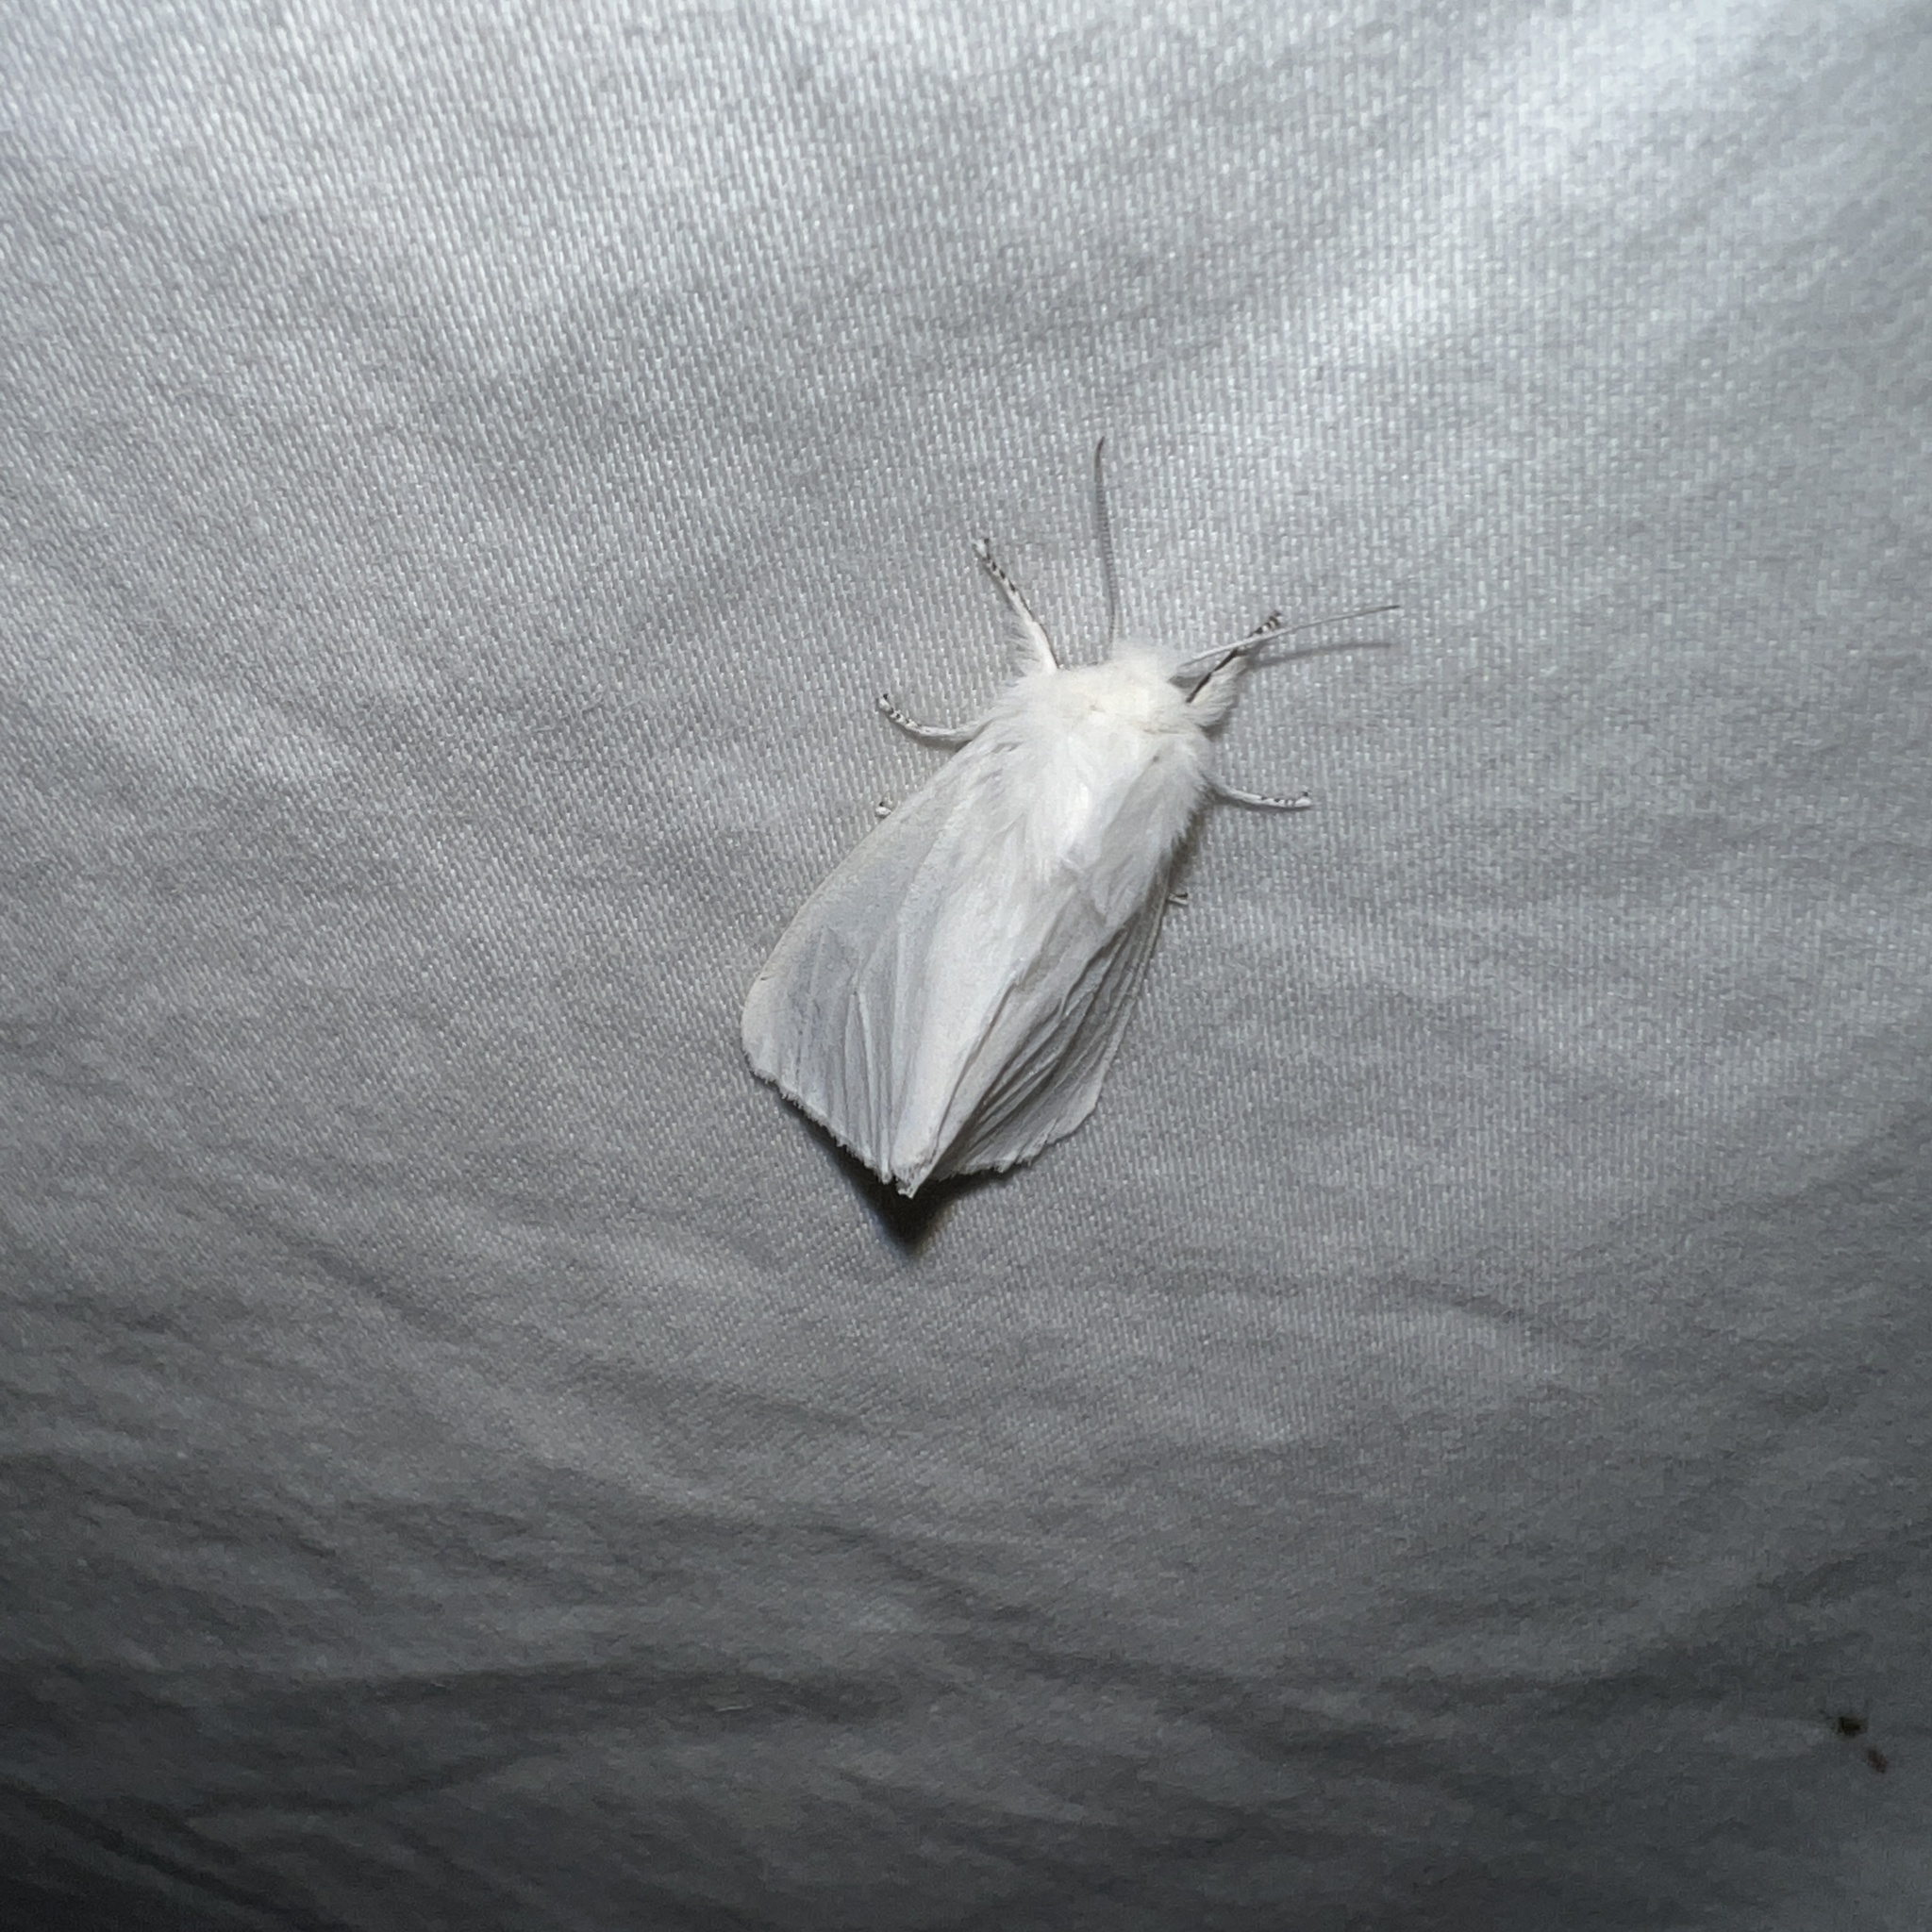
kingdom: Animalia
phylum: Arthropoda
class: Insecta
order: Lepidoptera
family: Erebidae
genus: Spilosoma
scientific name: Spilosoma virginica
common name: Virginia tiger moth
